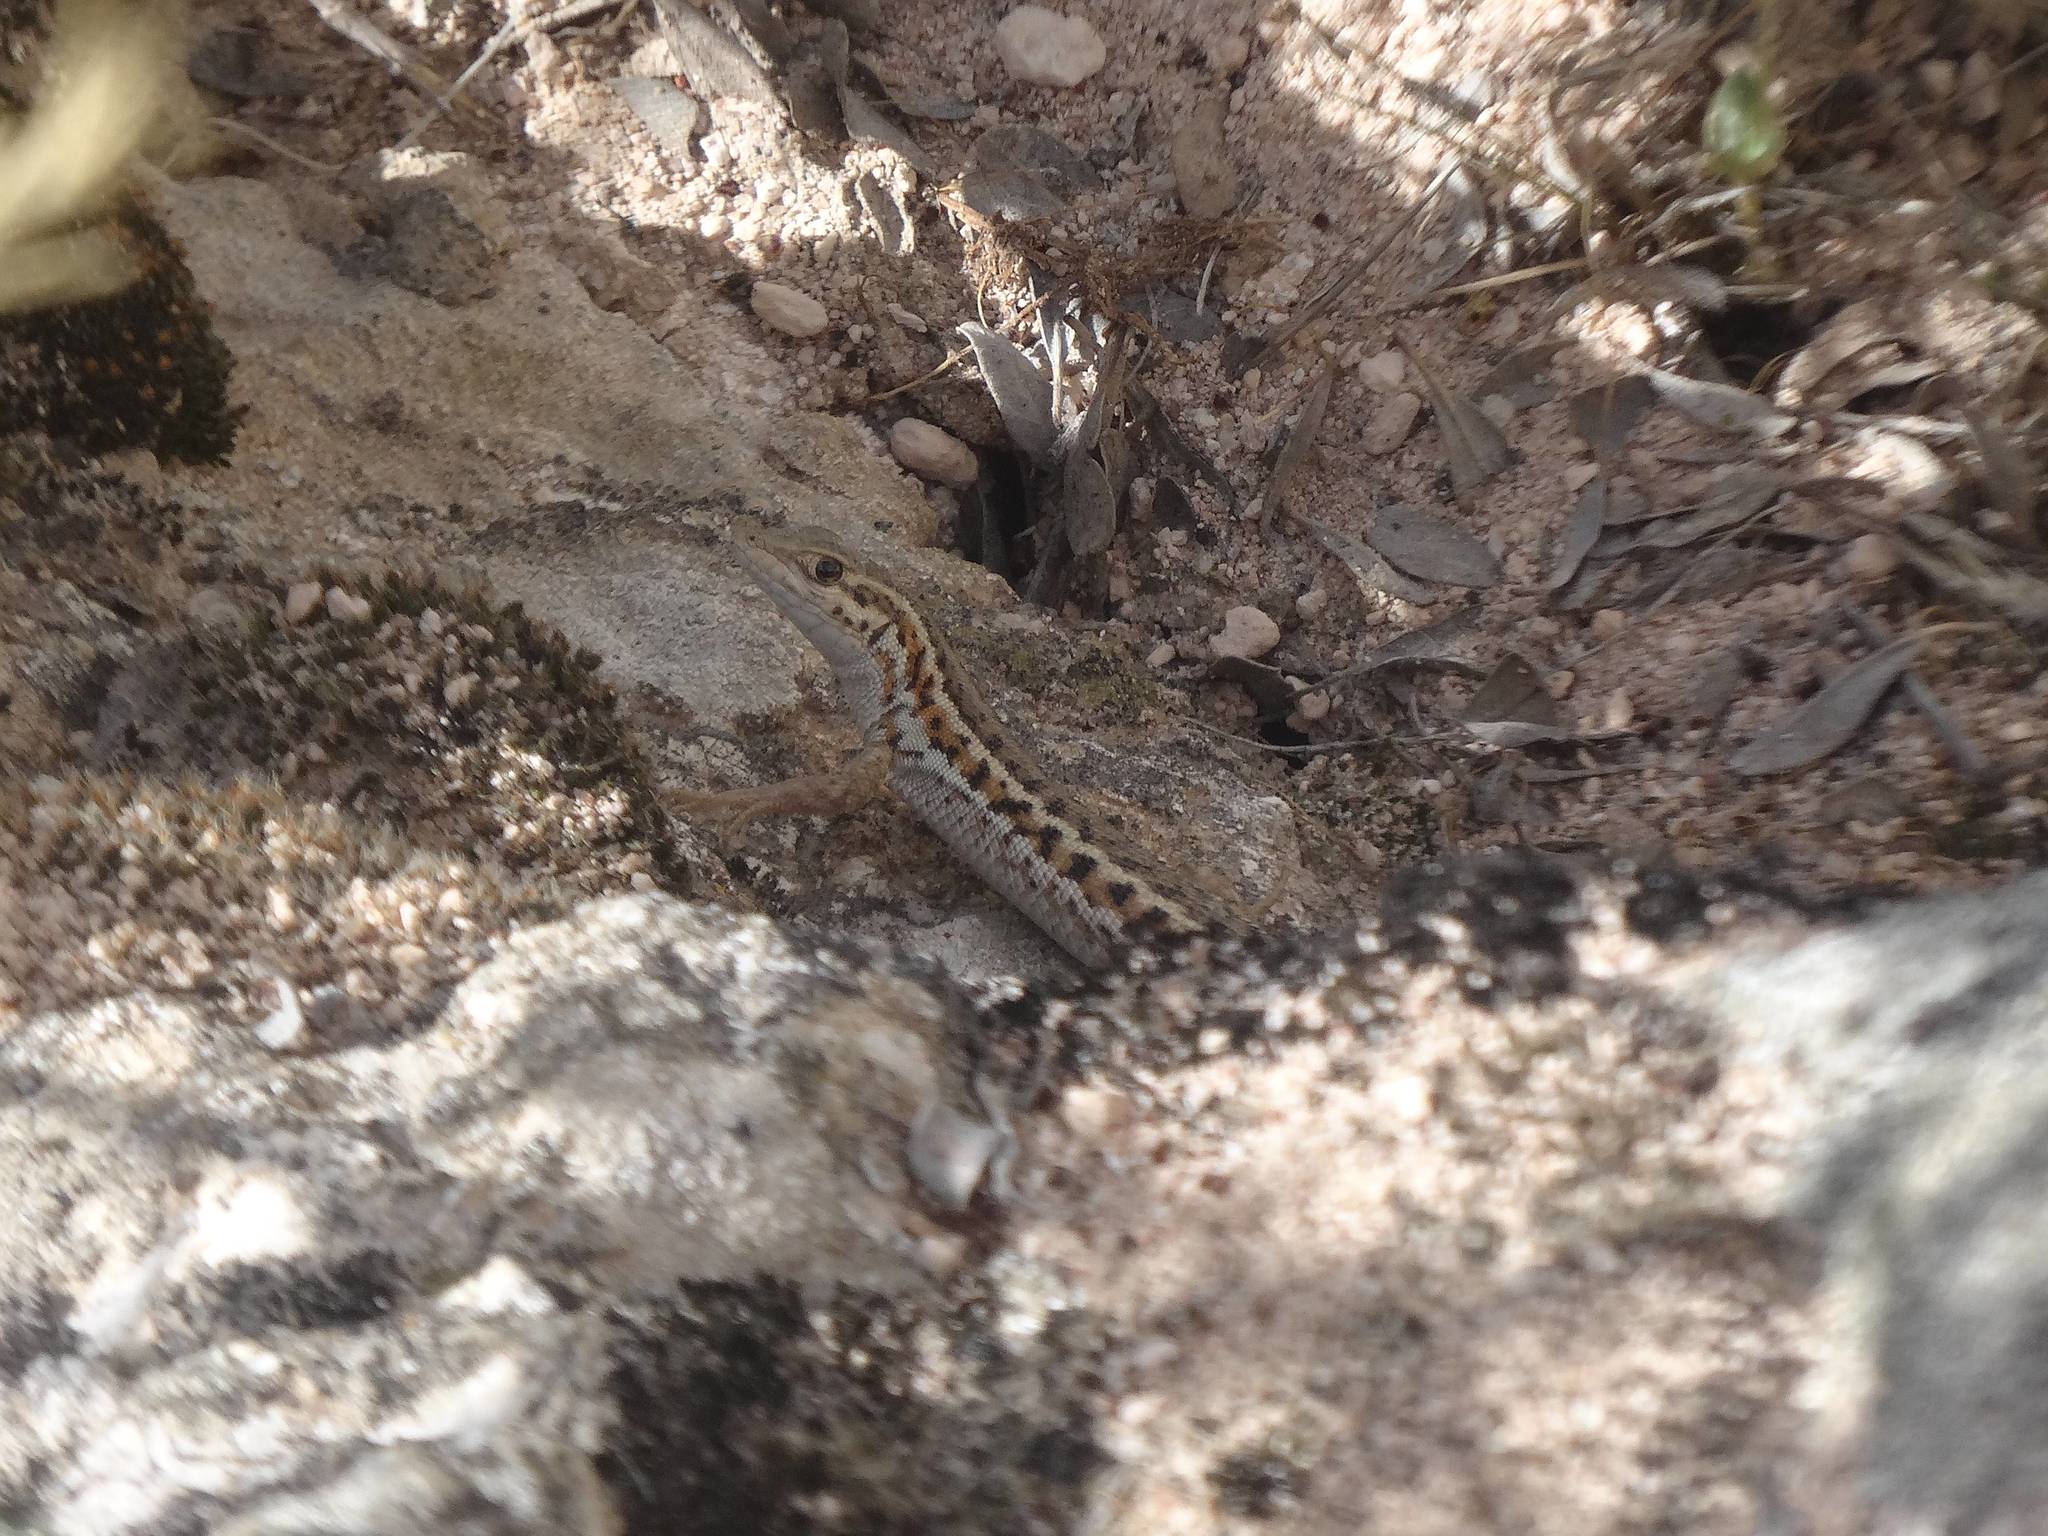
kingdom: Animalia
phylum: Chordata
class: Squamata
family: Lacertidae
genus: Ophisops
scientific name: Ophisops elegans
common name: Snake-eyed lizard
